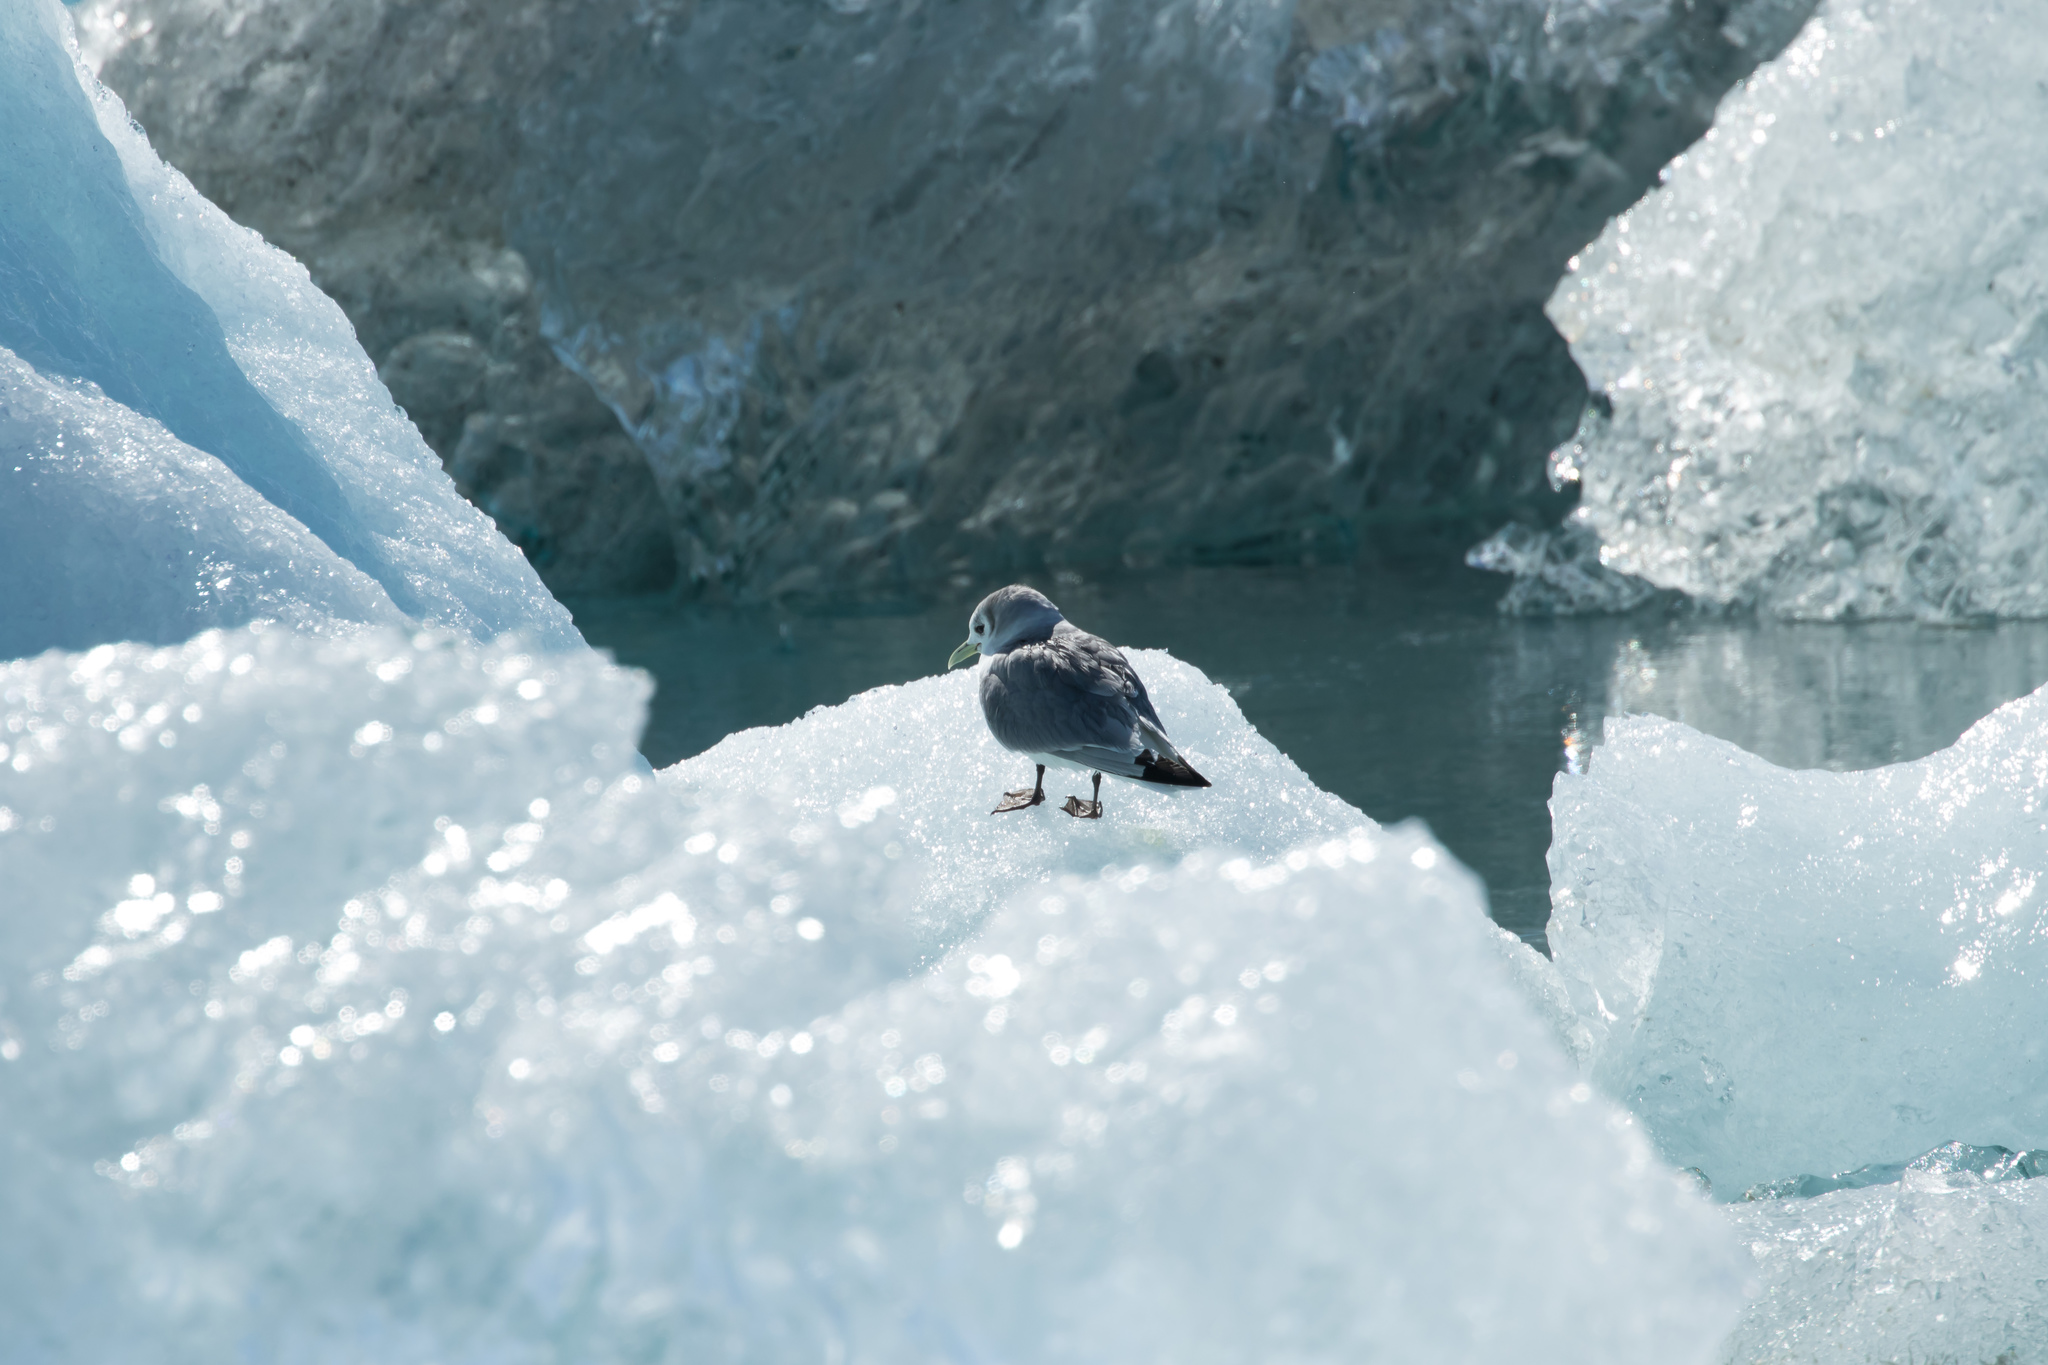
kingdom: Animalia
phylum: Chordata
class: Aves
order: Charadriiformes
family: Laridae
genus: Rissa
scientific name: Rissa tridactyla
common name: Black-legged kittiwake
